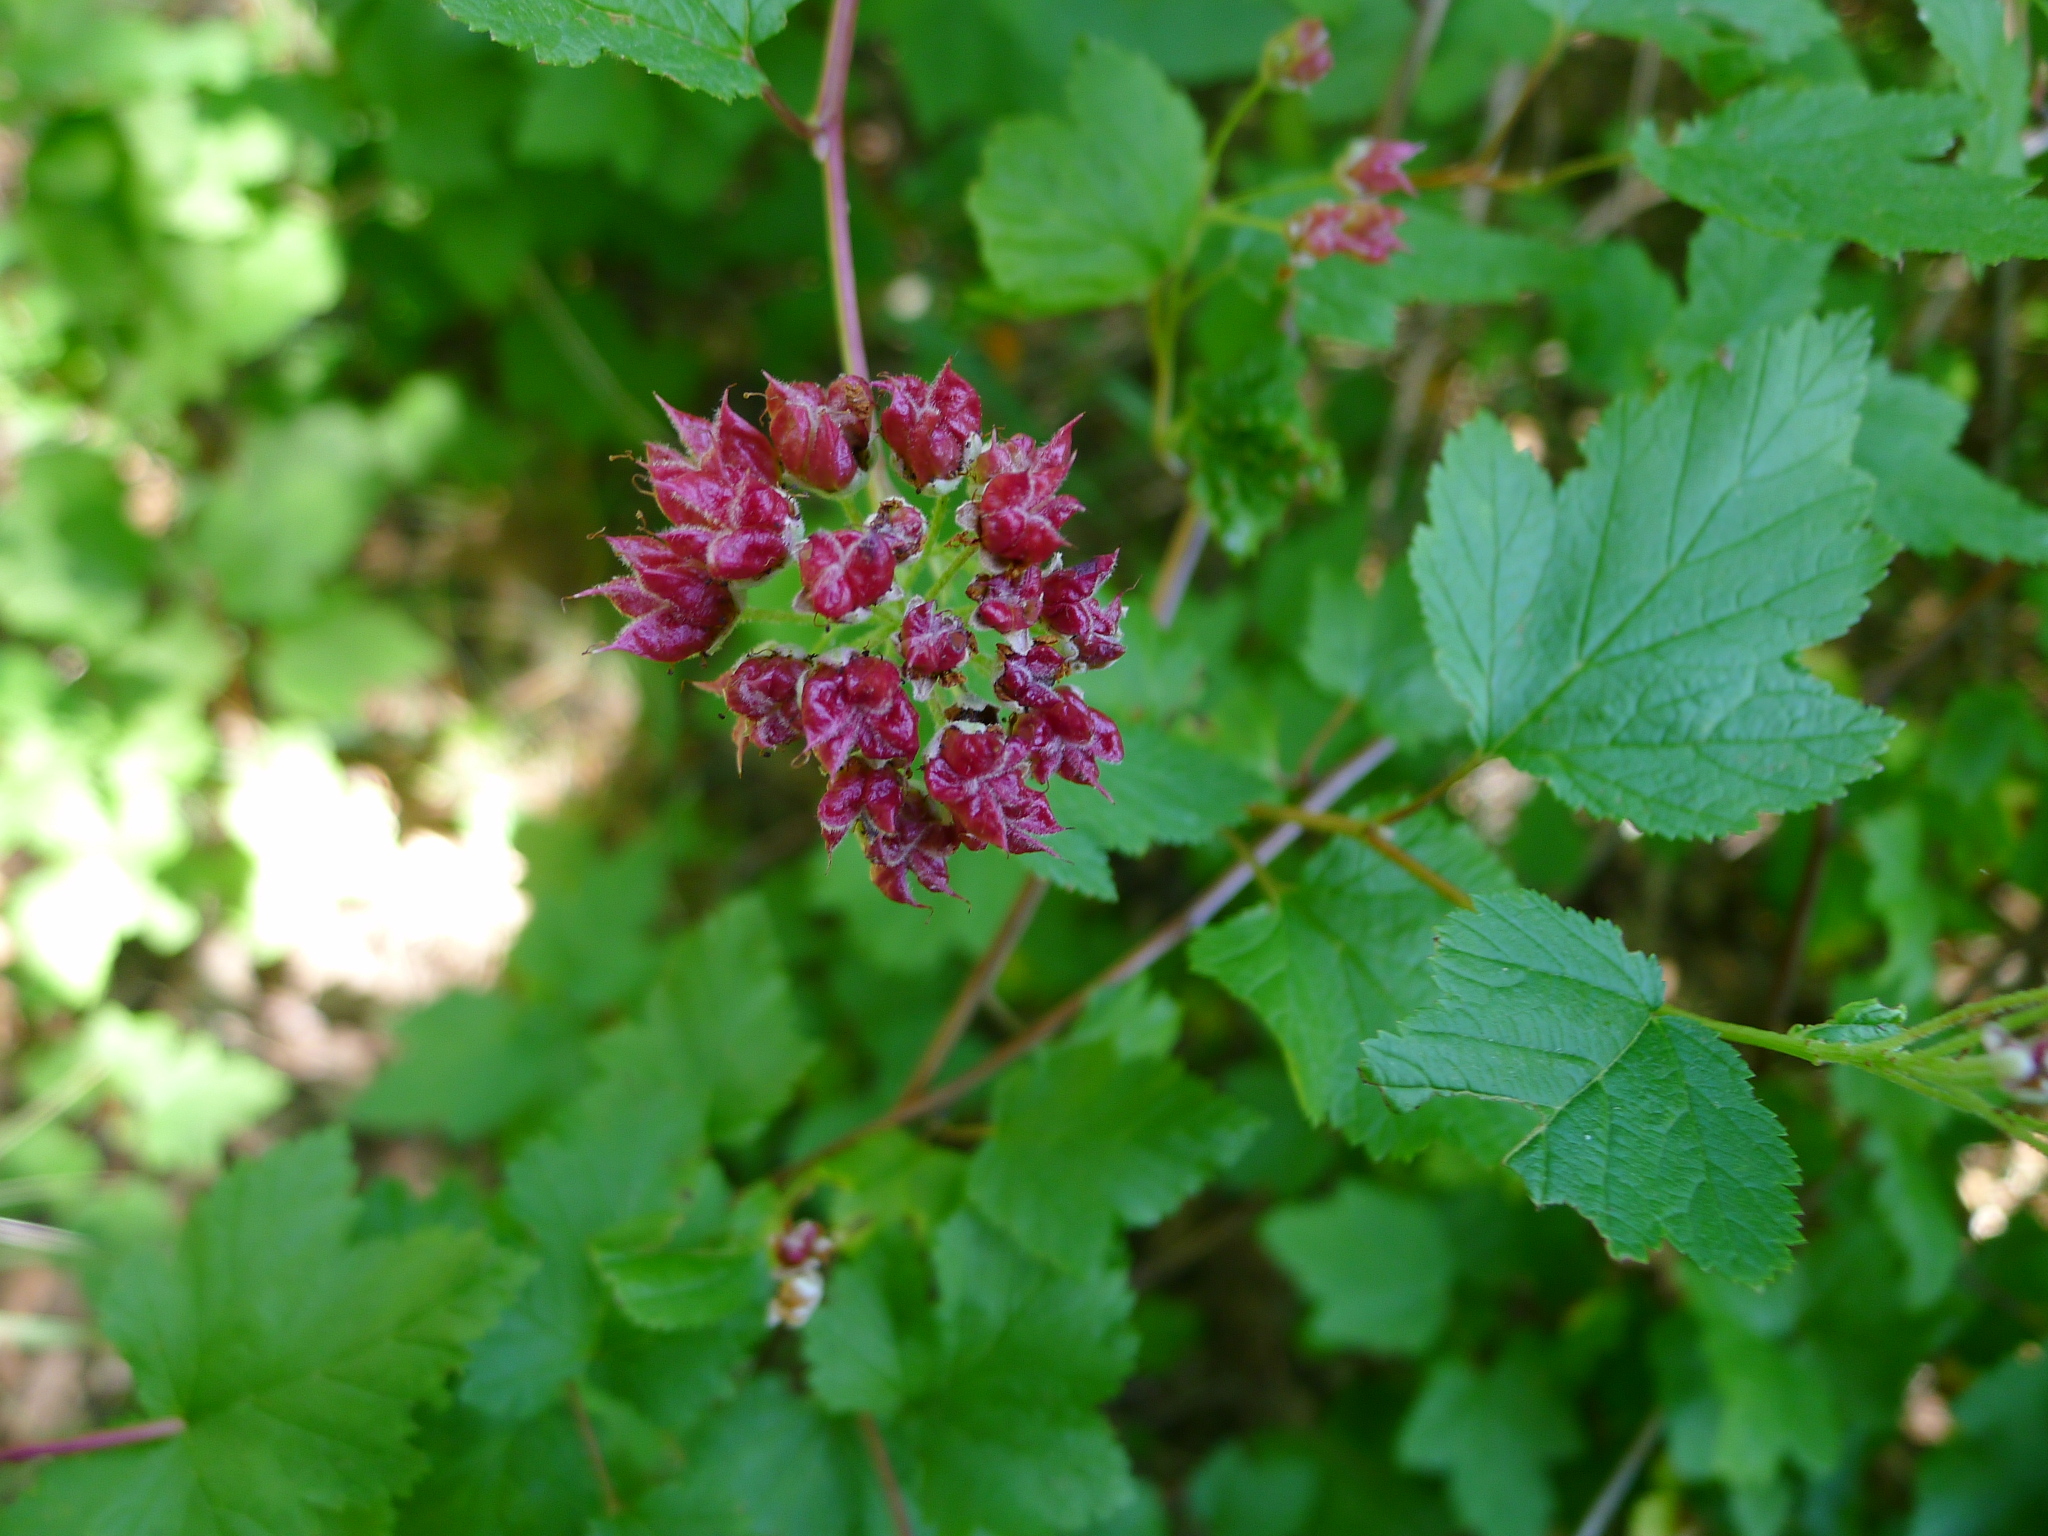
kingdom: Plantae
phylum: Tracheophyta
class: Magnoliopsida
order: Rosales
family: Rosaceae
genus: Physocarpus
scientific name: Physocarpus capitatus
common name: Pacific ninebark
